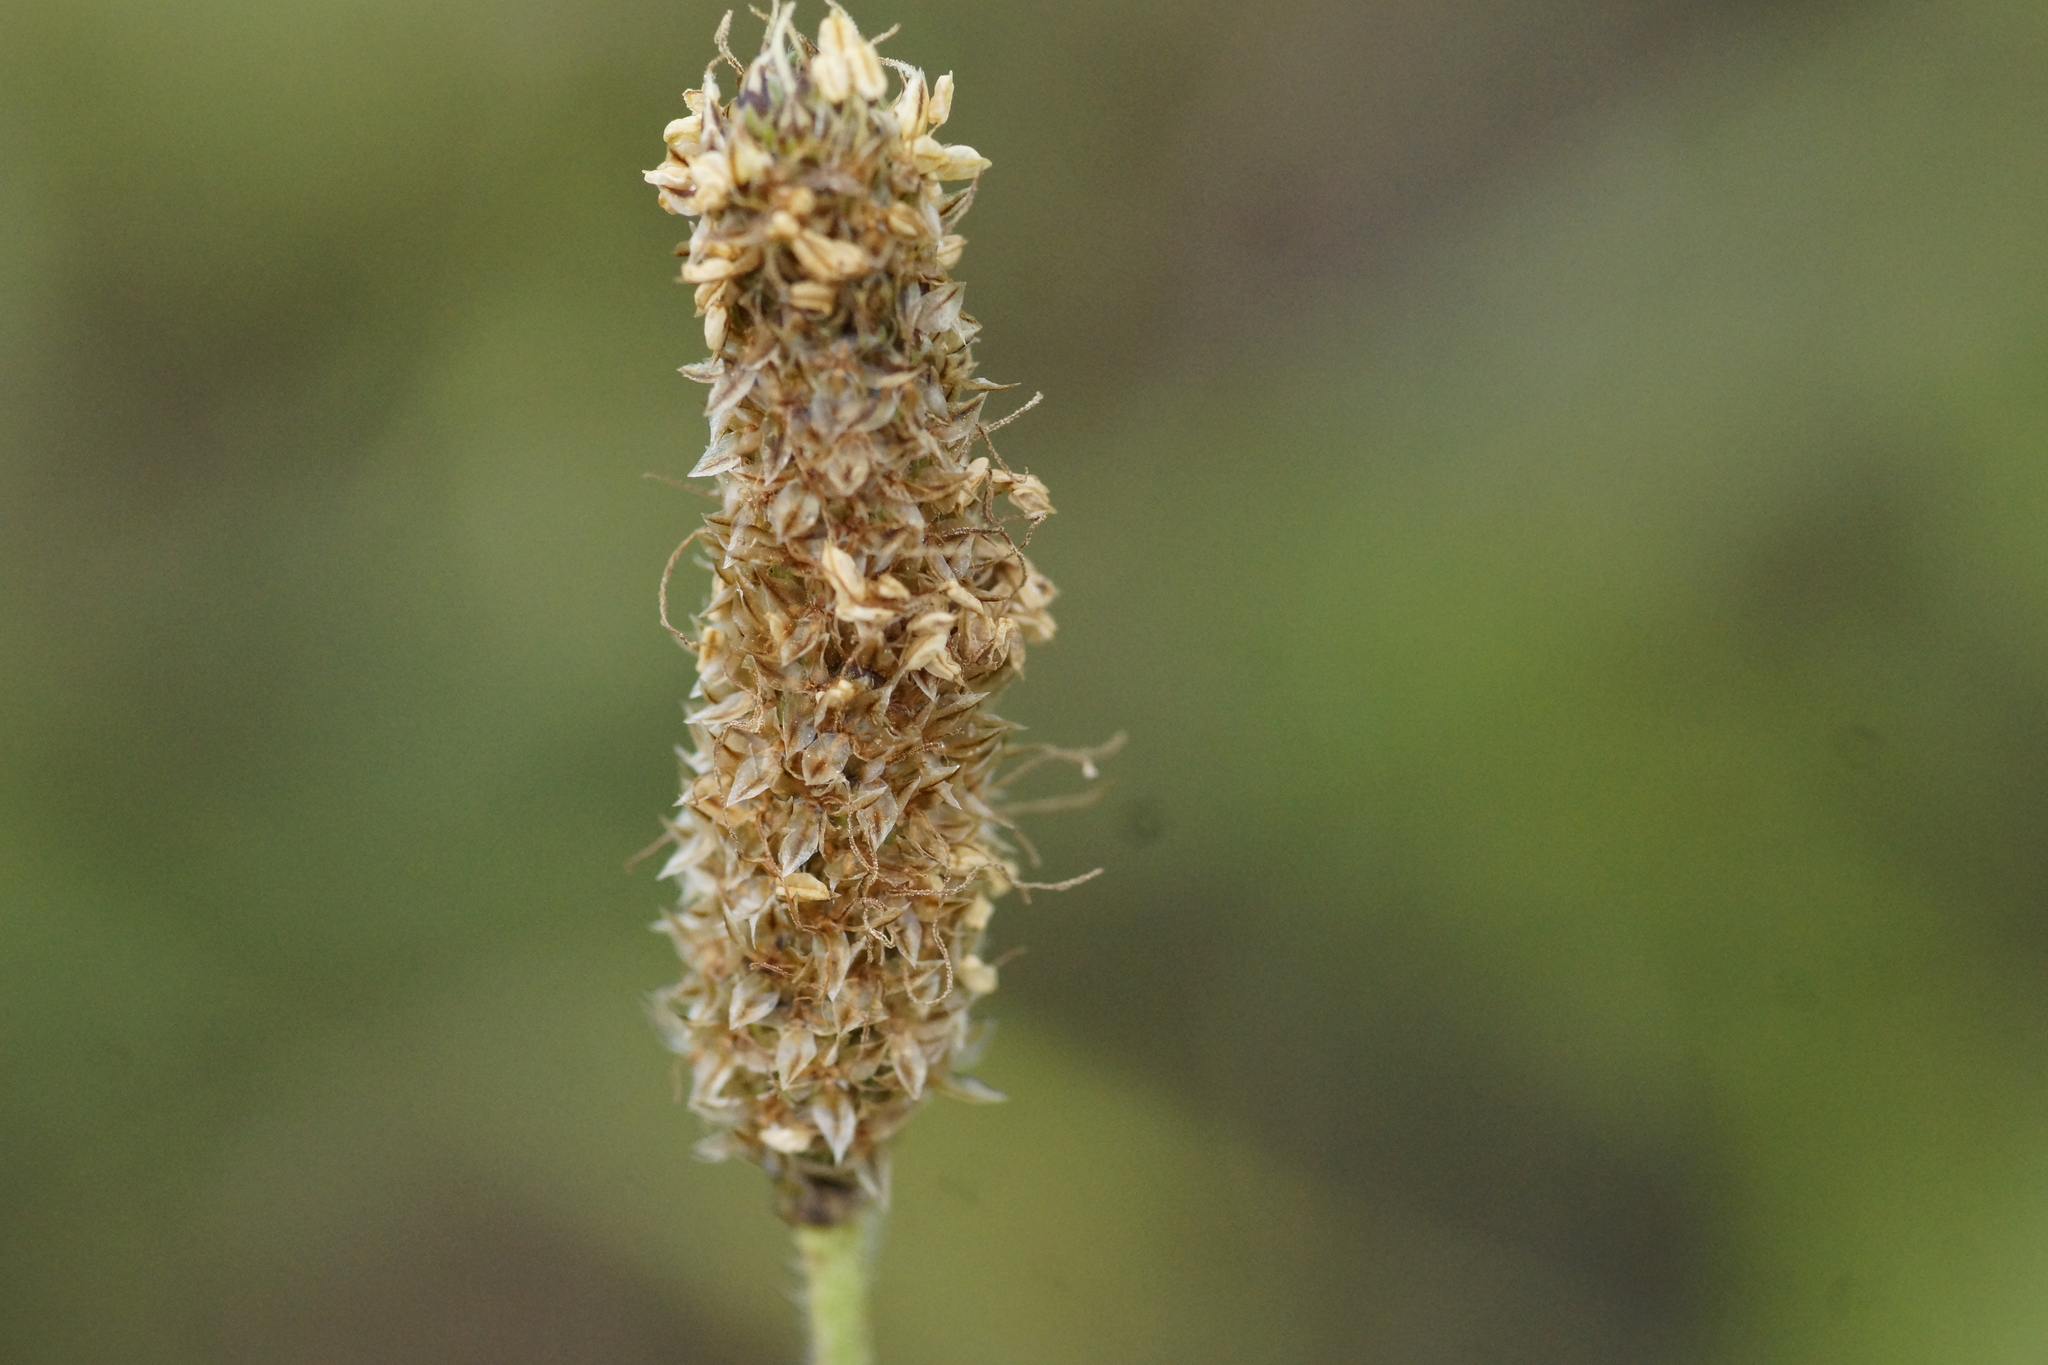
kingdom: Plantae
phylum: Tracheophyta
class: Magnoliopsida
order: Lamiales
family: Plantaginaceae
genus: Plantago
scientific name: Plantago lanceolata
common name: Ribwort plantain
